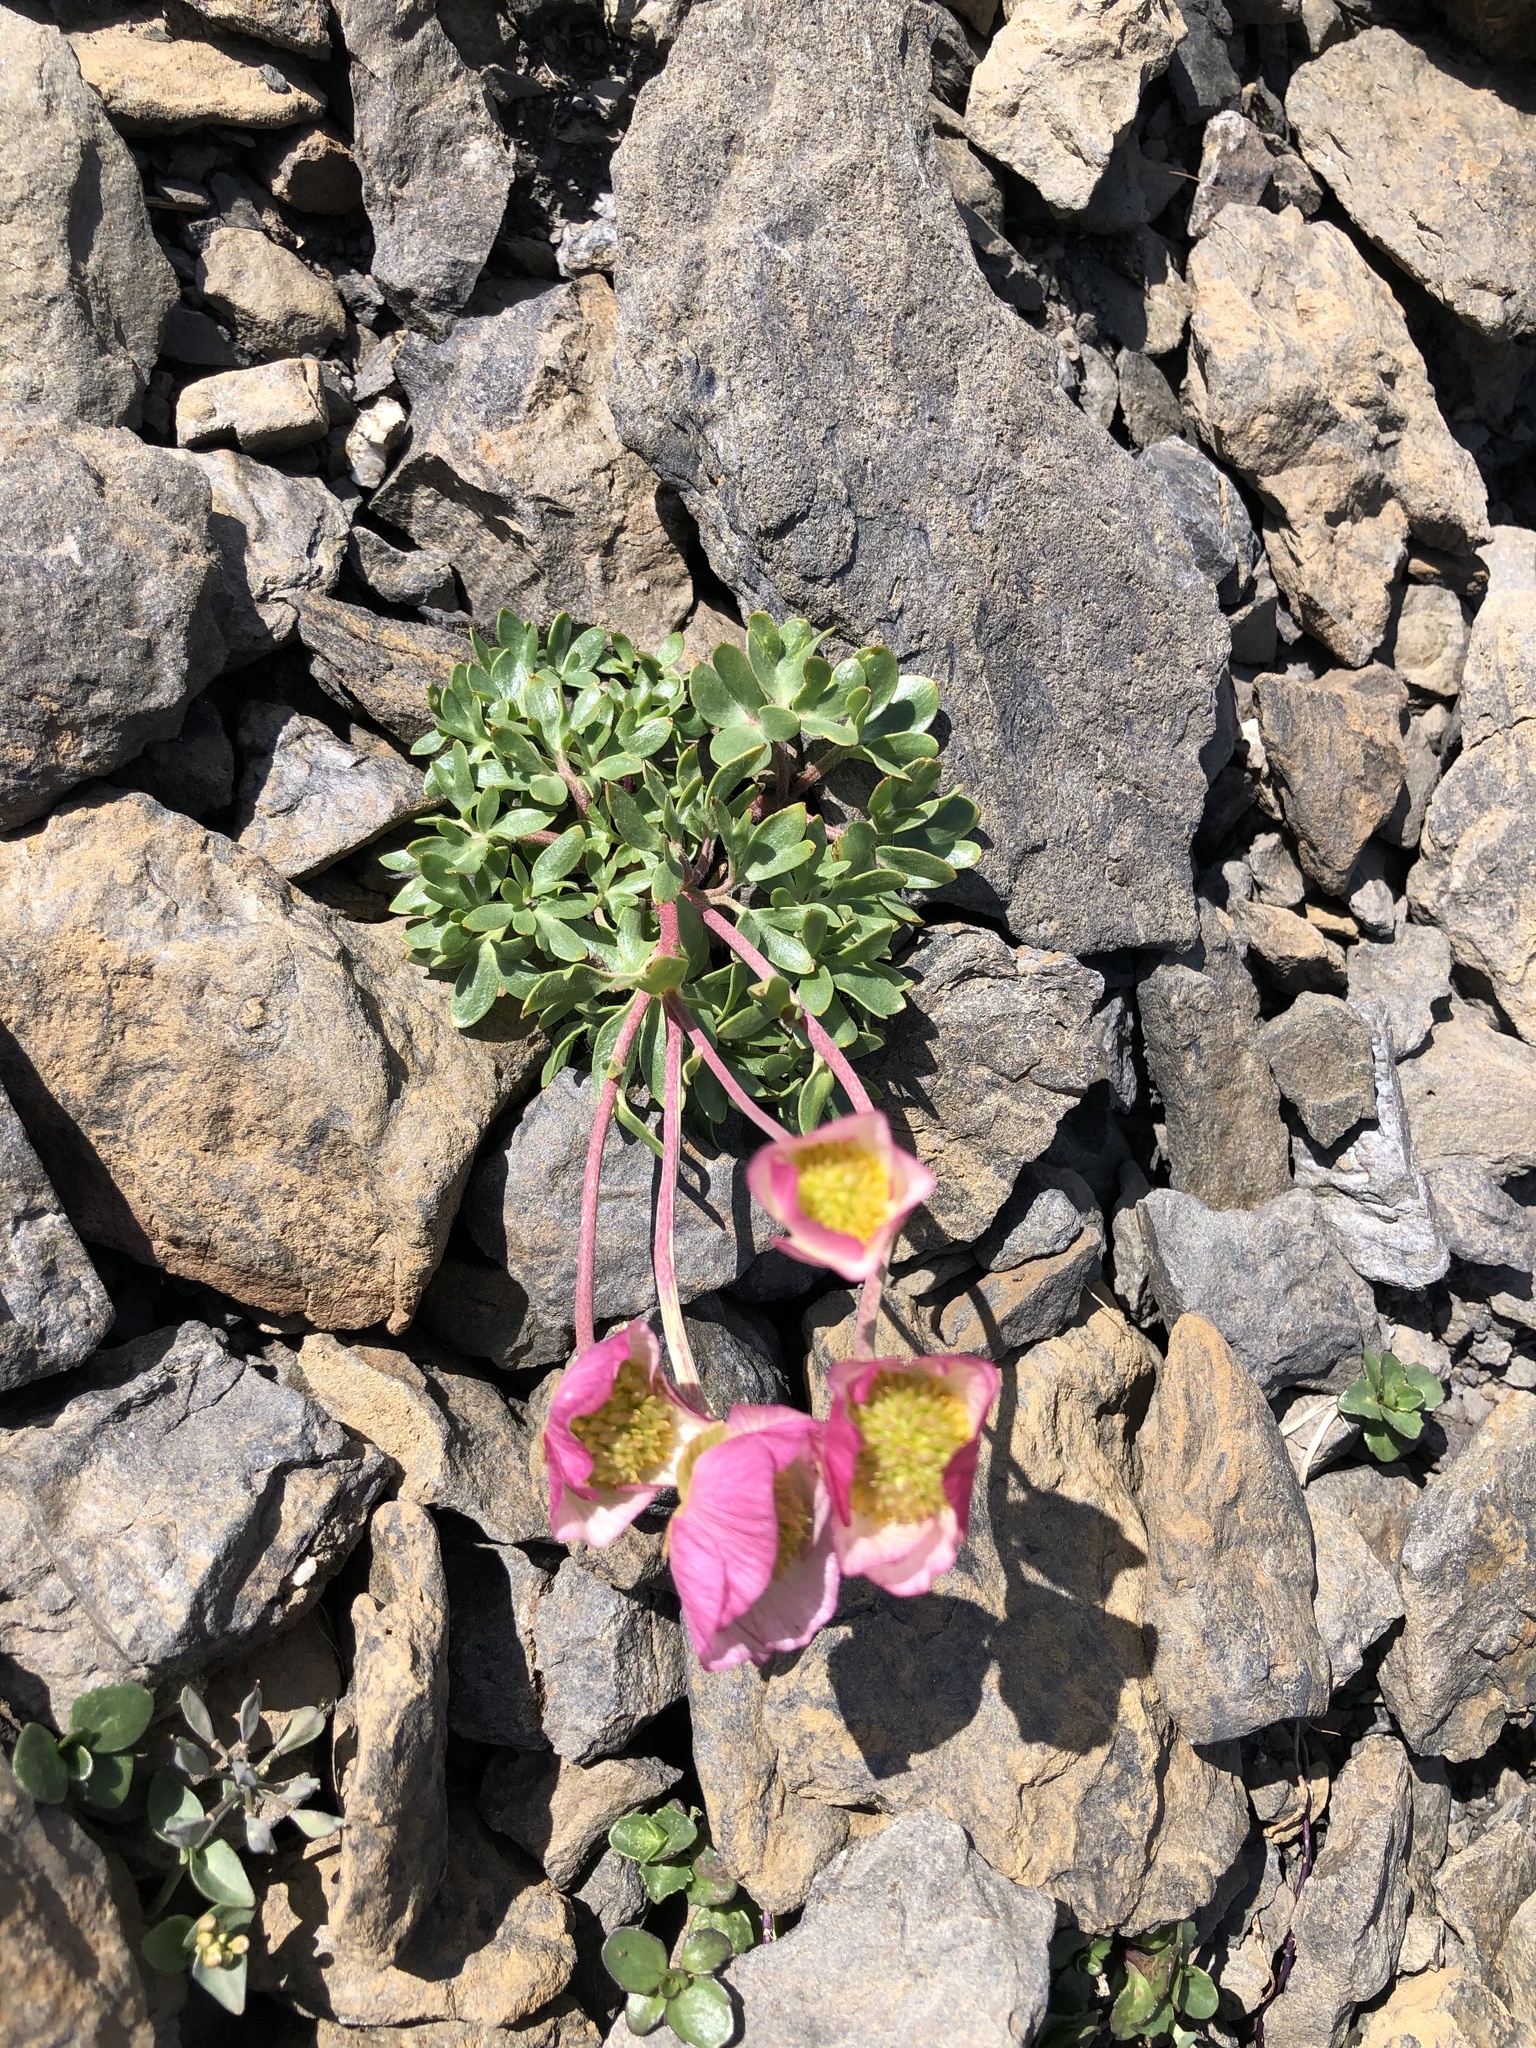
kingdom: Plantae
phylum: Tracheophyta
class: Magnoliopsida
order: Ranunculales
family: Ranunculaceae
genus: Ranunculus
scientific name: Ranunculus glacialis
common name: Glacier buttercup
